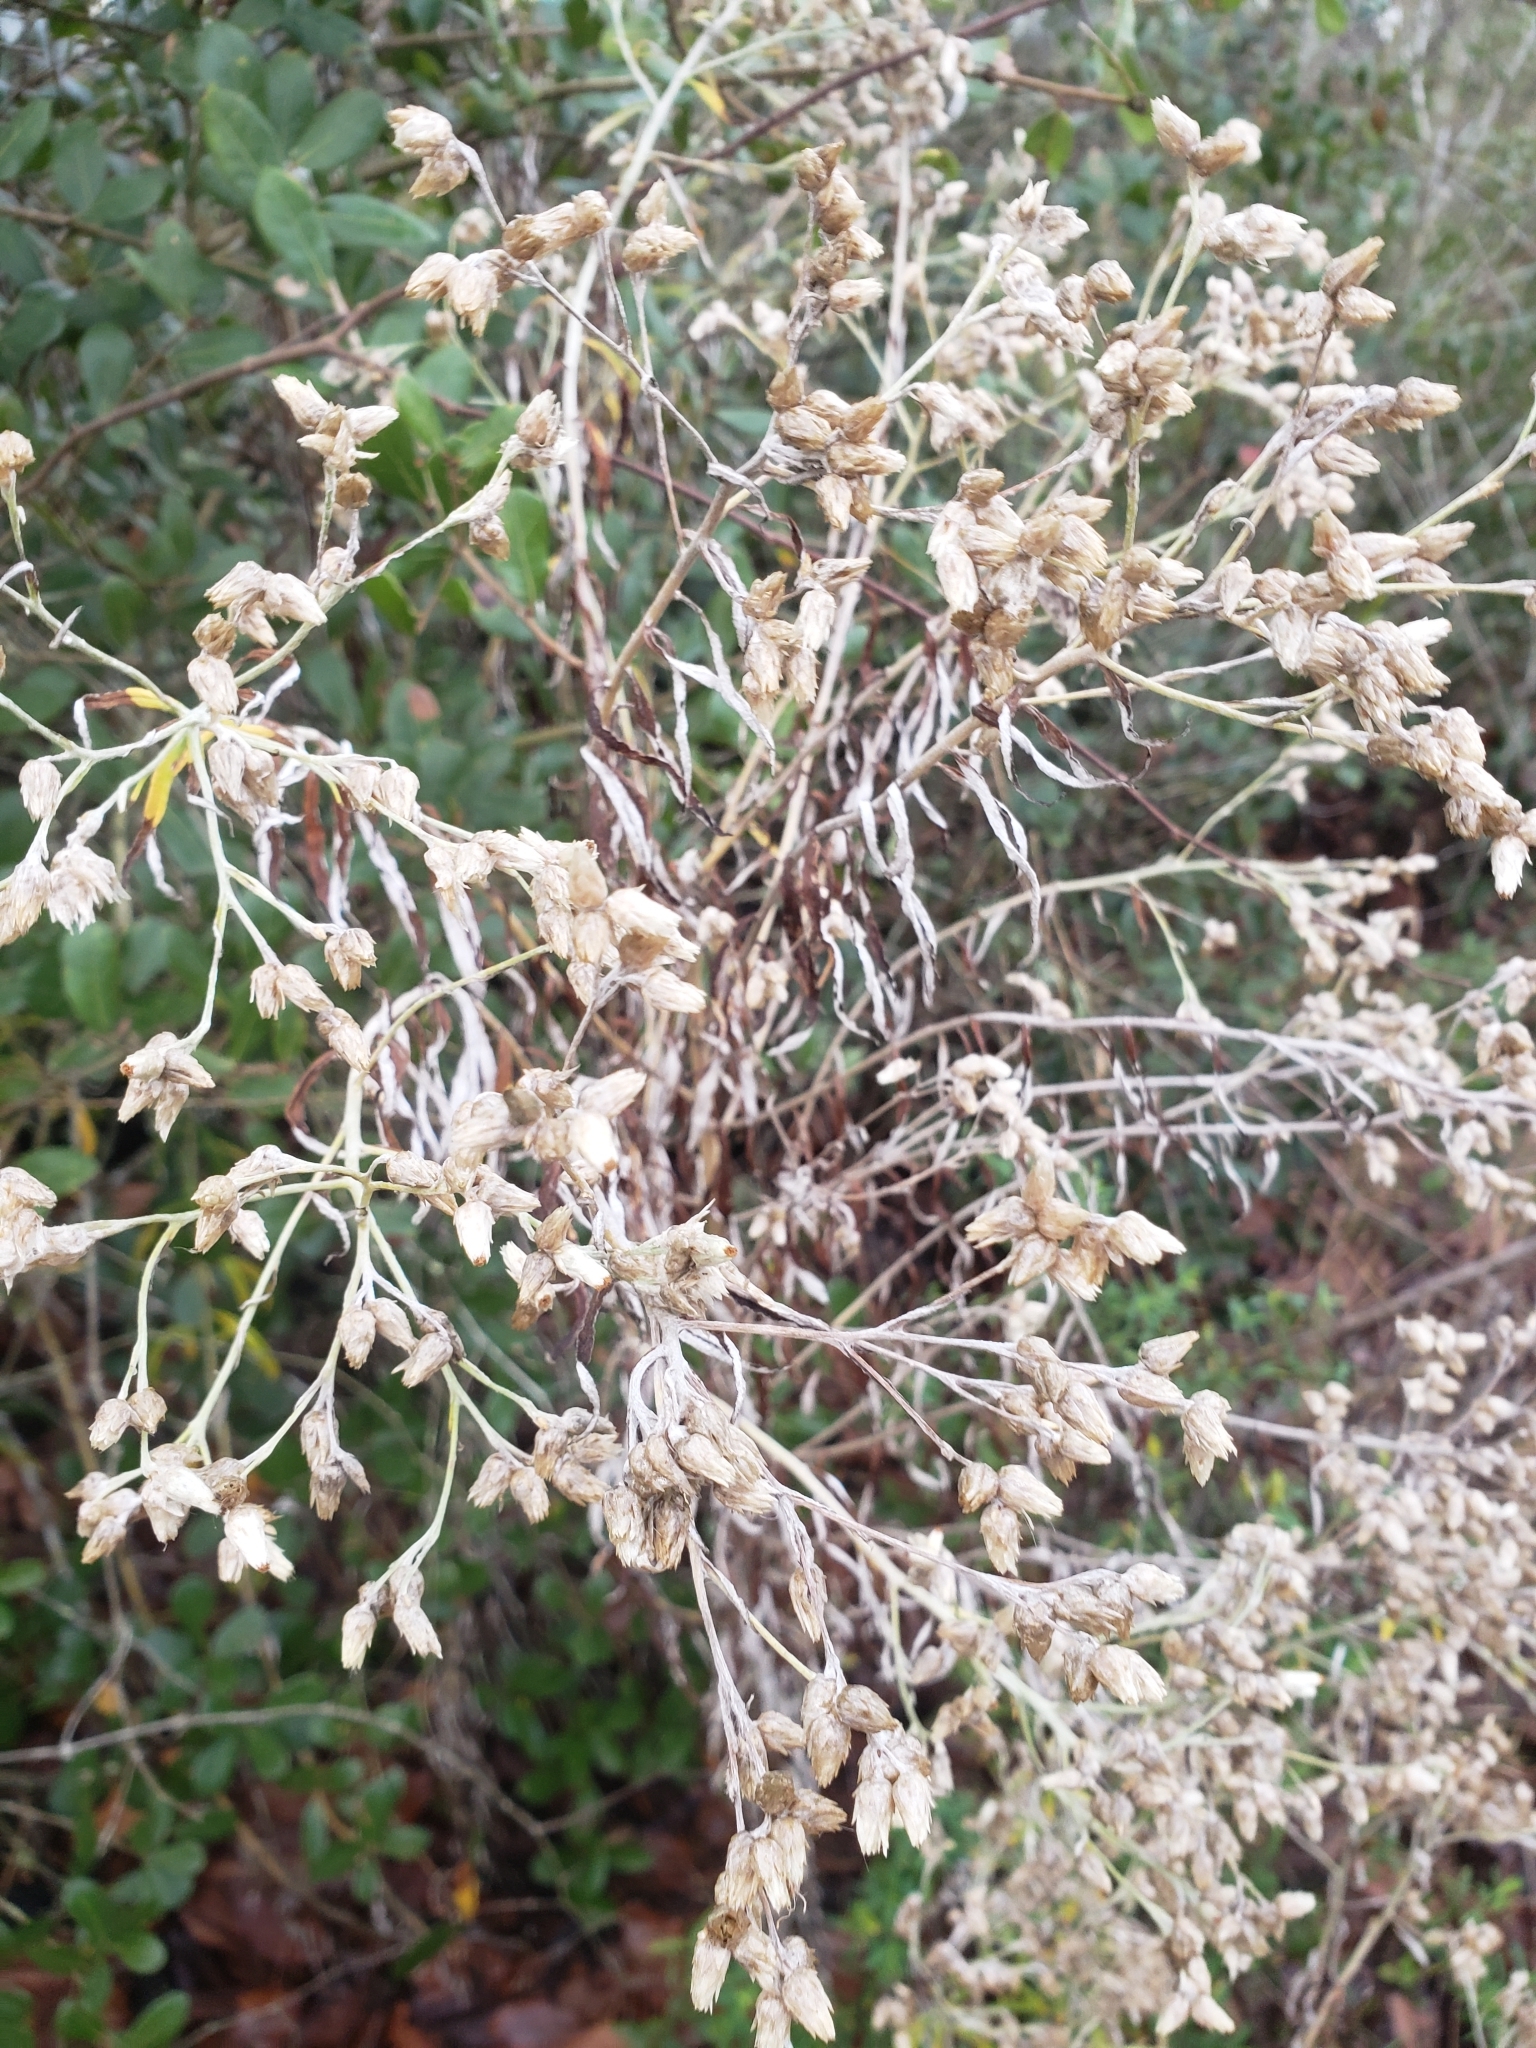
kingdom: Plantae
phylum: Tracheophyta
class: Magnoliopsida
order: Asterales
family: Asteraceae
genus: Pseudognaphalium
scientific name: Pseudognaphalium obtusifolium
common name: Eastern rabbit-tobacco
